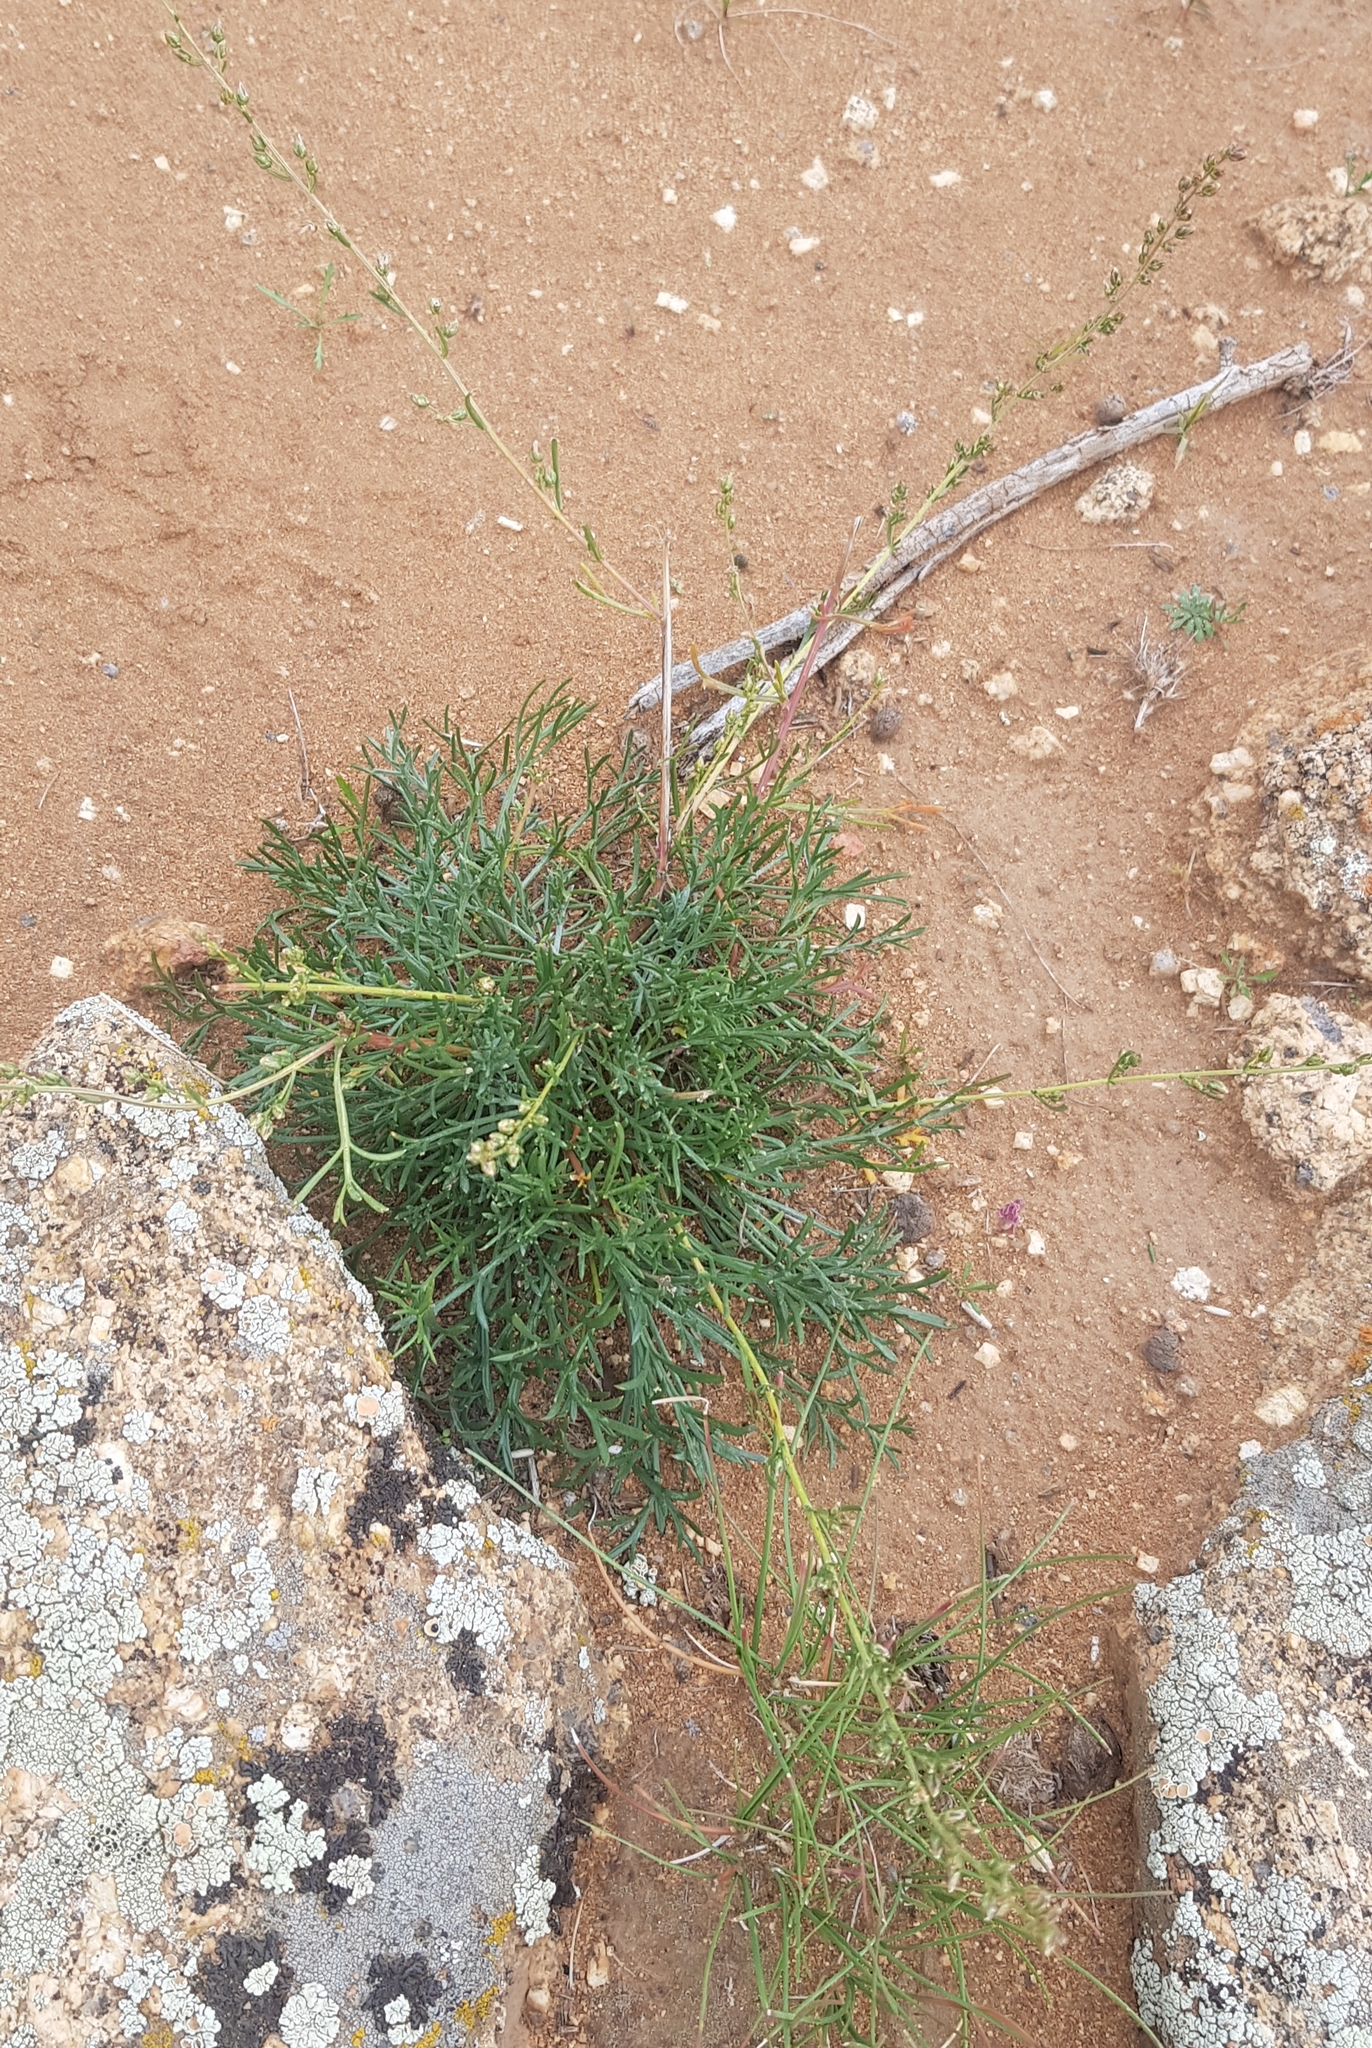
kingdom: Plantae
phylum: Tracheophyta
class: Magnoliopsida
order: Asterales
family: Asteraceae
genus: Artemisia
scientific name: Artemisia pubescens
